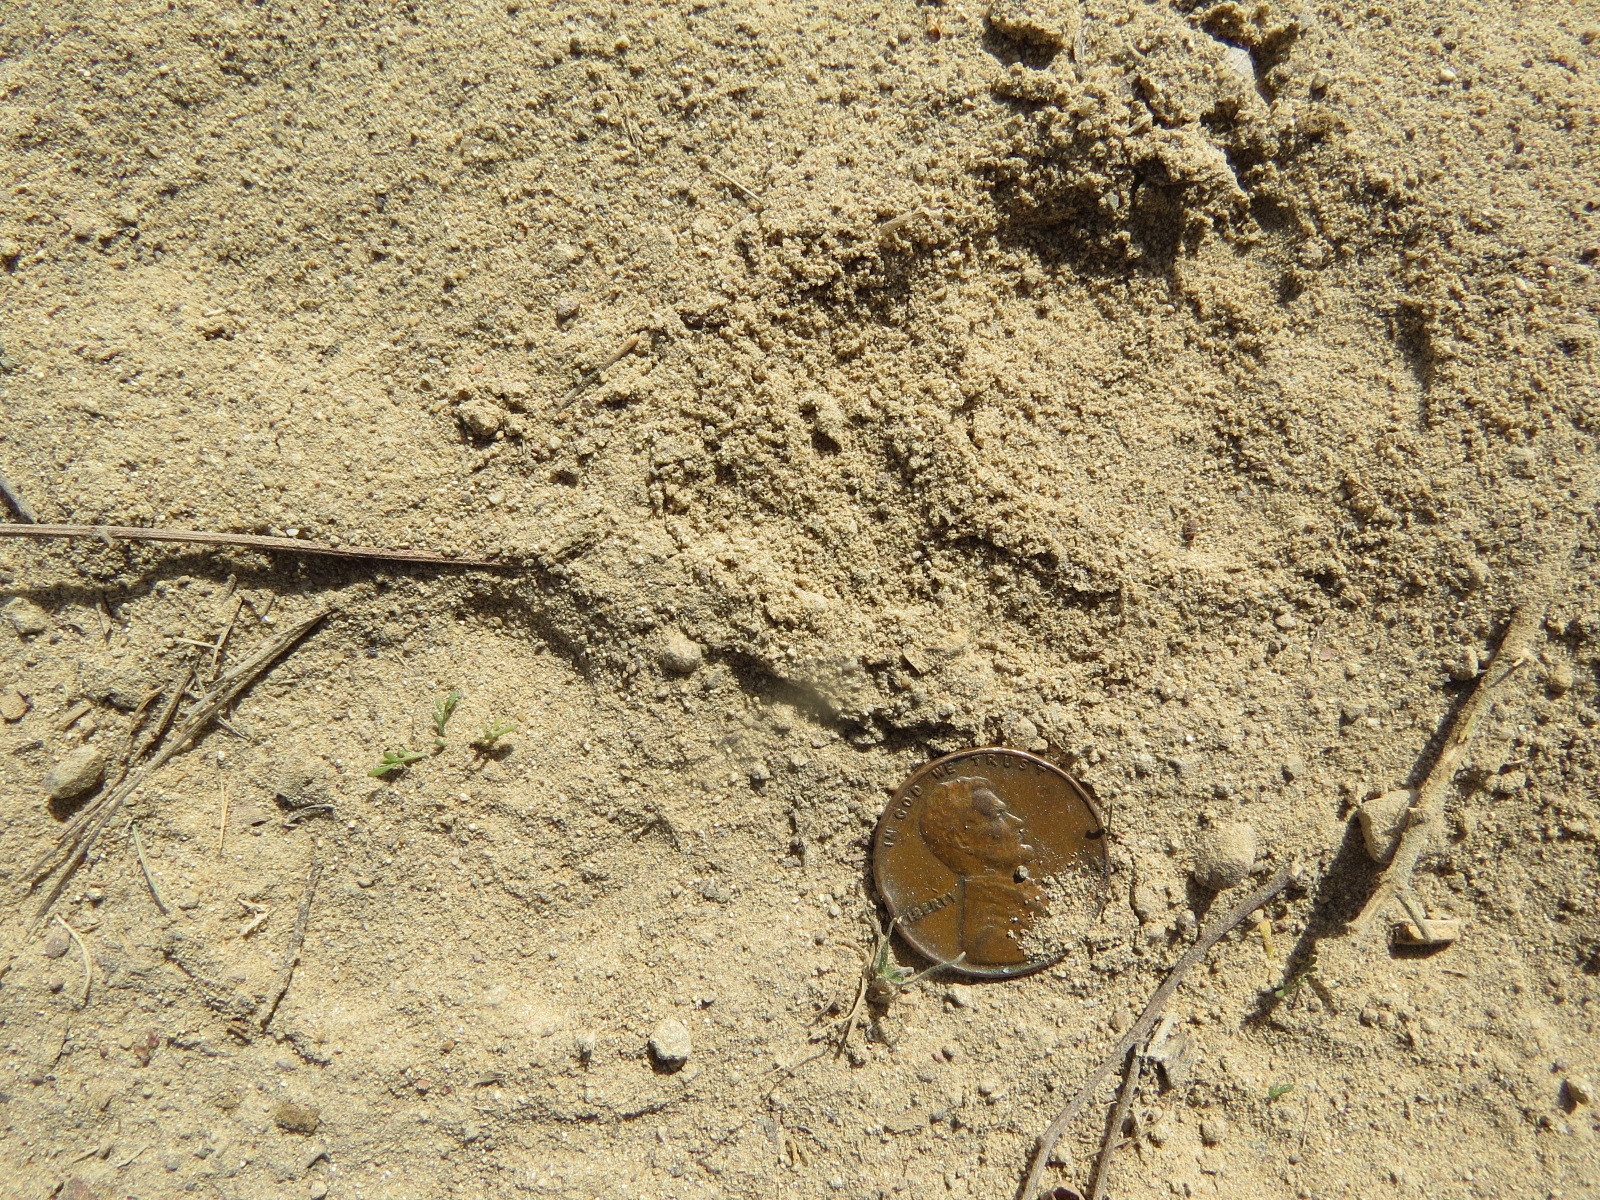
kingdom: Animalia
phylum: Chordata
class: Mammalia
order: Carnivora
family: Canidae
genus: Urocyon
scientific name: Urocyon cinereoargenteus
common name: Gray fox
